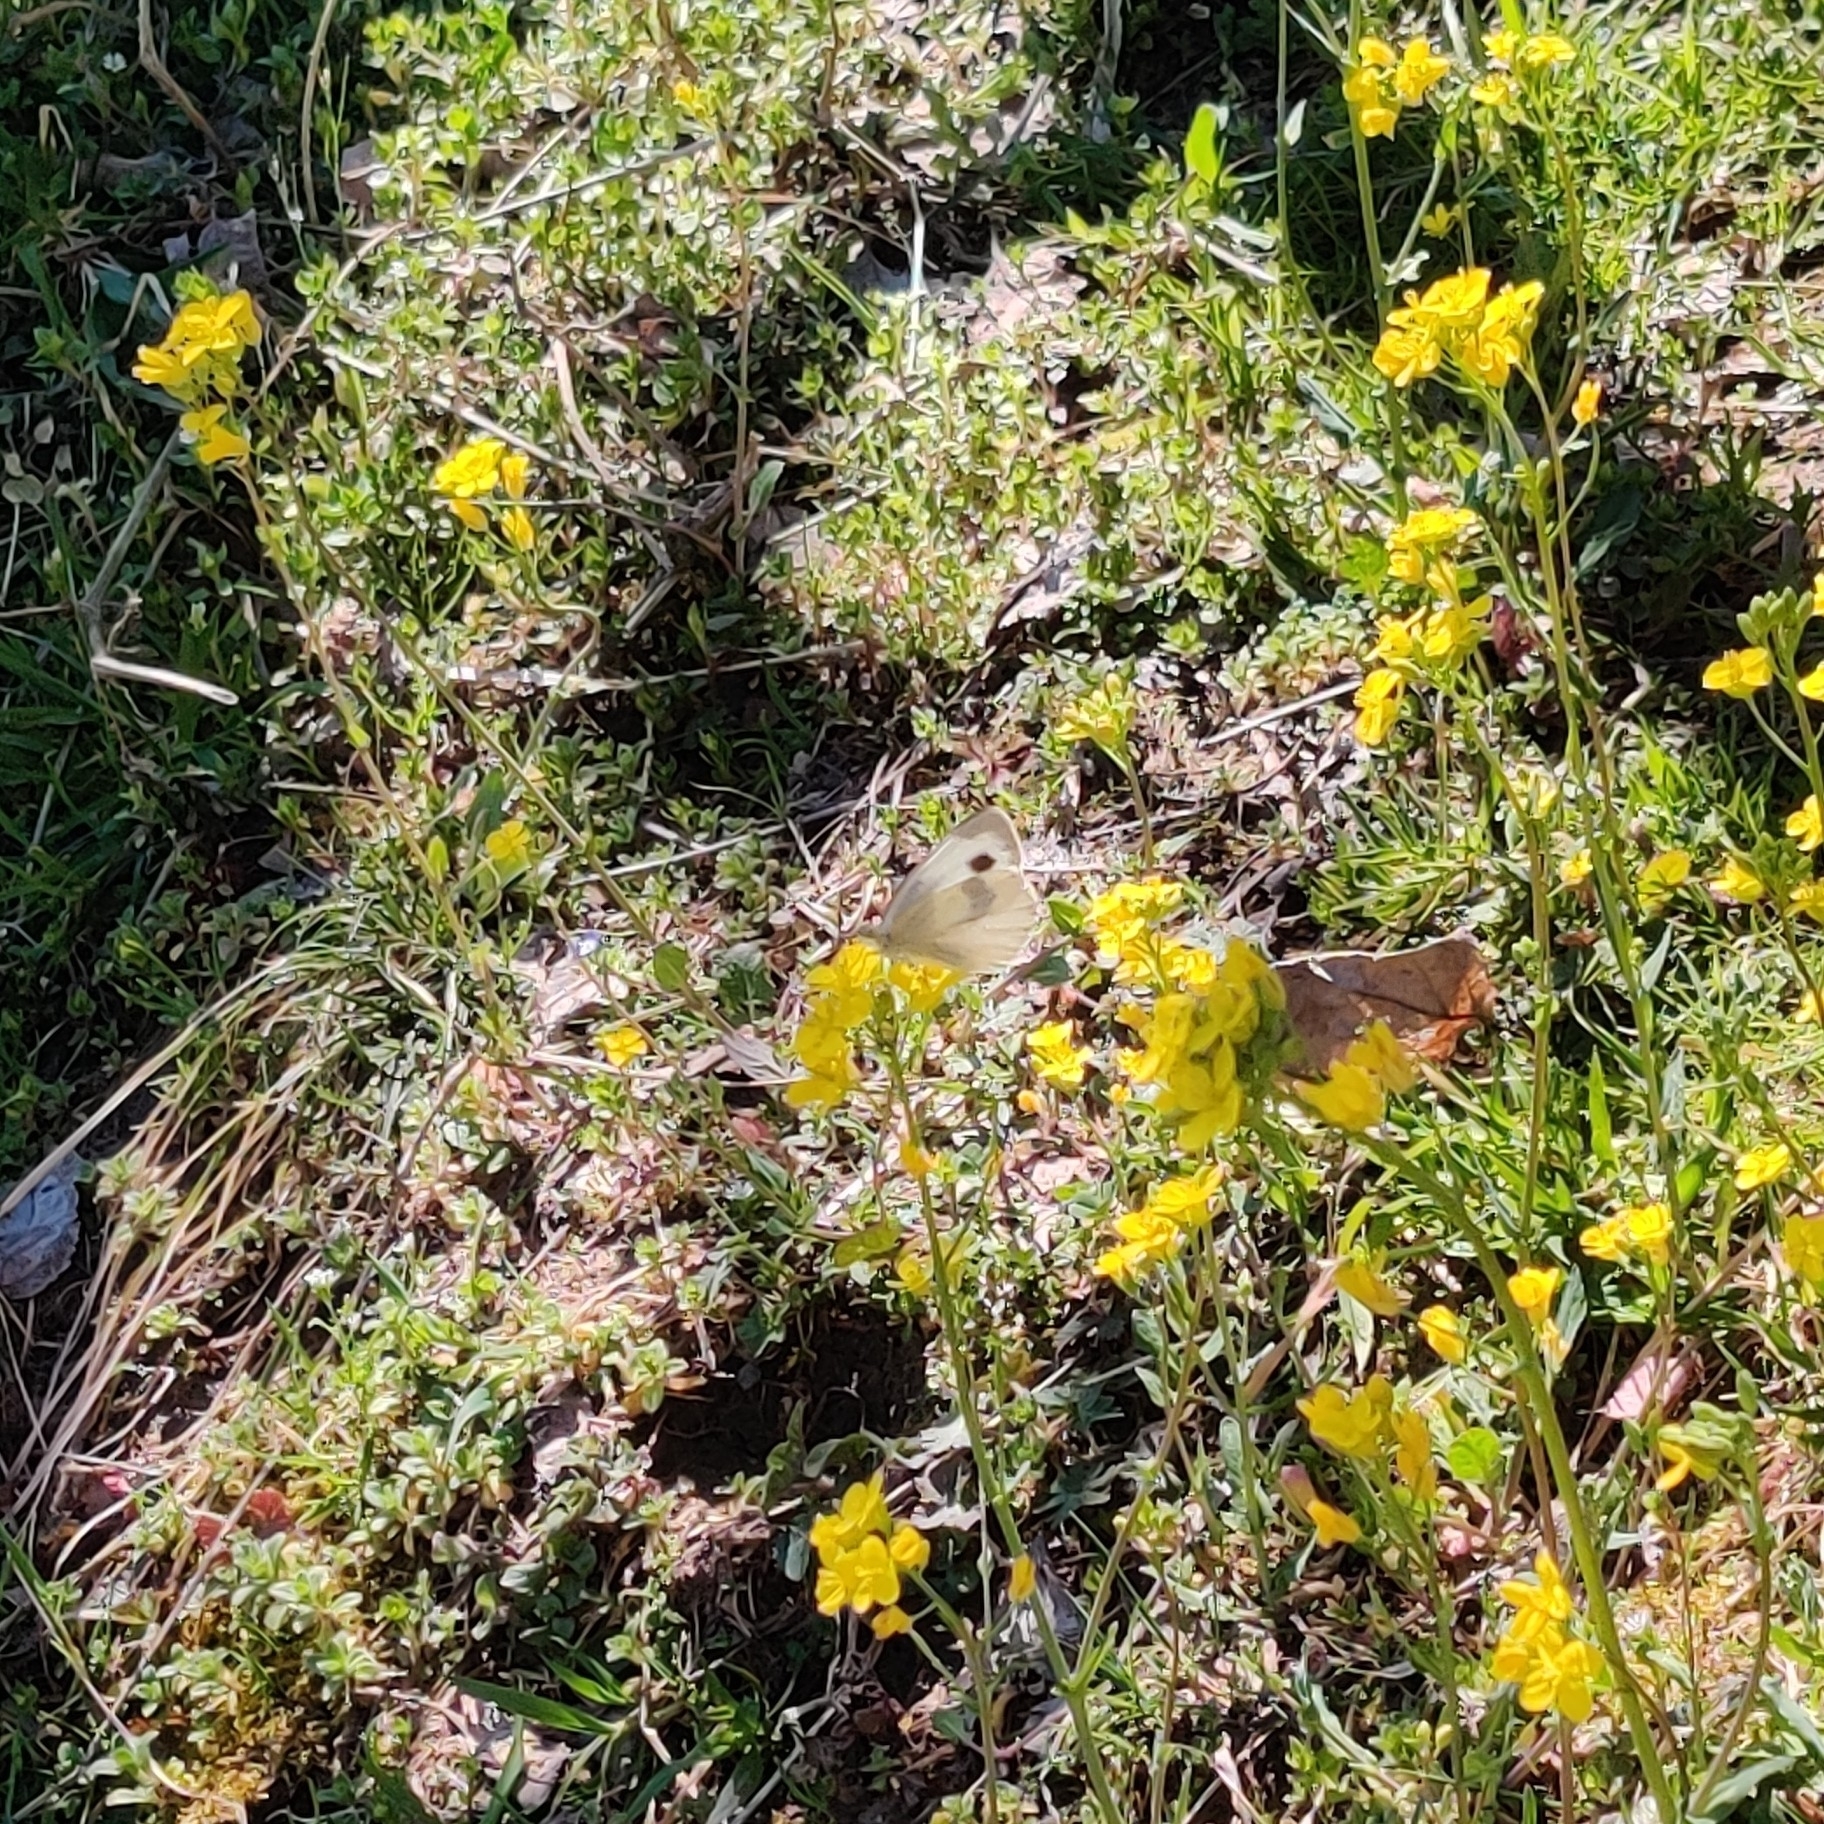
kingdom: Animalia
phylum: Arthropoda
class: Insecta
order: Lepidoptera
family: Pieridae
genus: Pieris
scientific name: Pieris canidia
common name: Indian cabbage white
